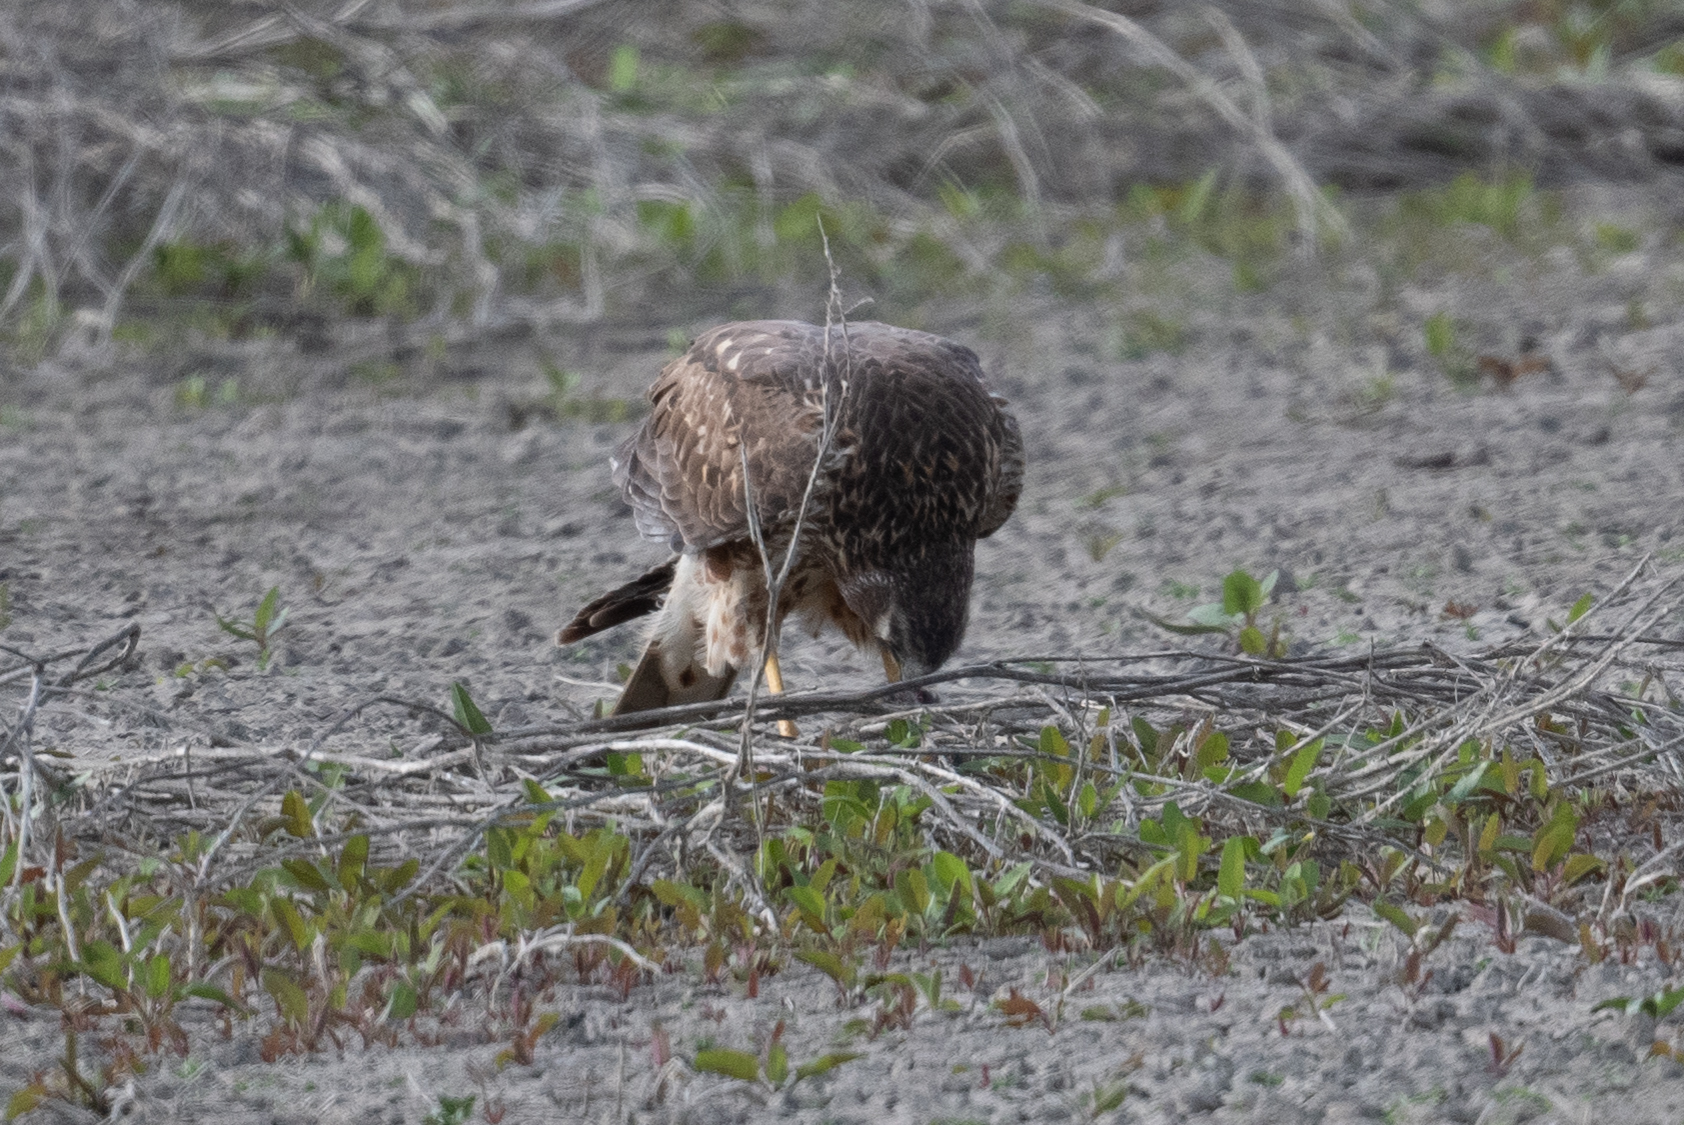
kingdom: Animalia
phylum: Chordata
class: Aves
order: Accipitriformes
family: Accipitridae
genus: Circus
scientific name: Circus cyaneus
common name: Hen harrier
